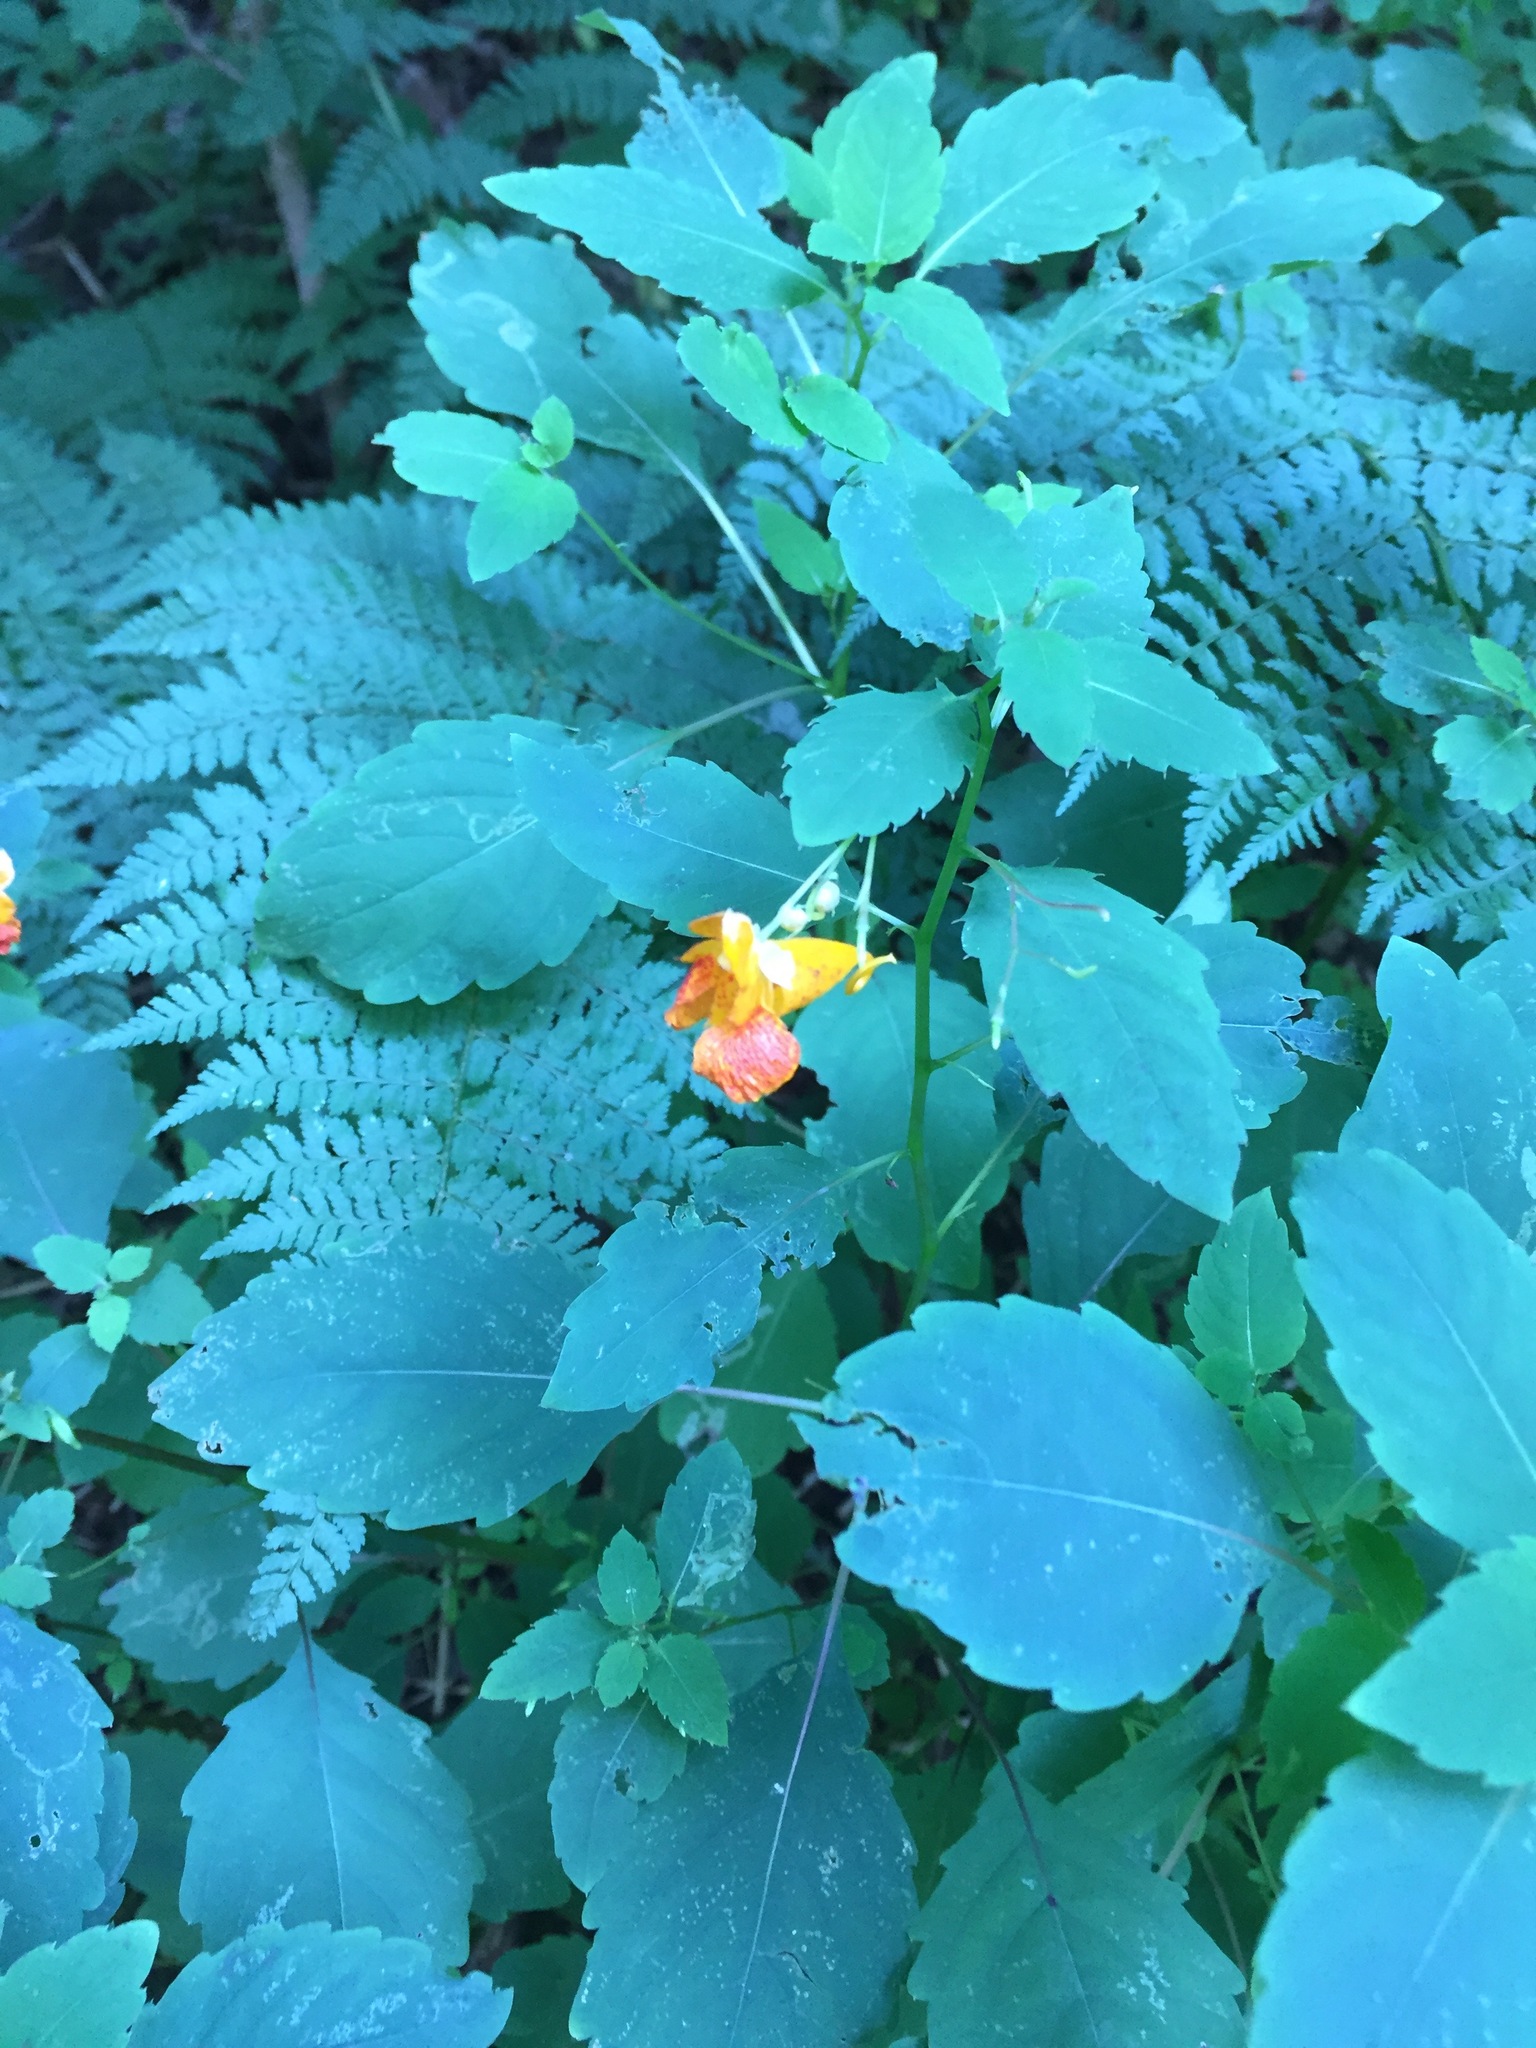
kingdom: Plantae
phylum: Tracheophyta
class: Magnoliopsida
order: Ericales
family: Balsaminaceae
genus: Impatiens
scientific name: Impatiens capensis
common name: Orange balsam
